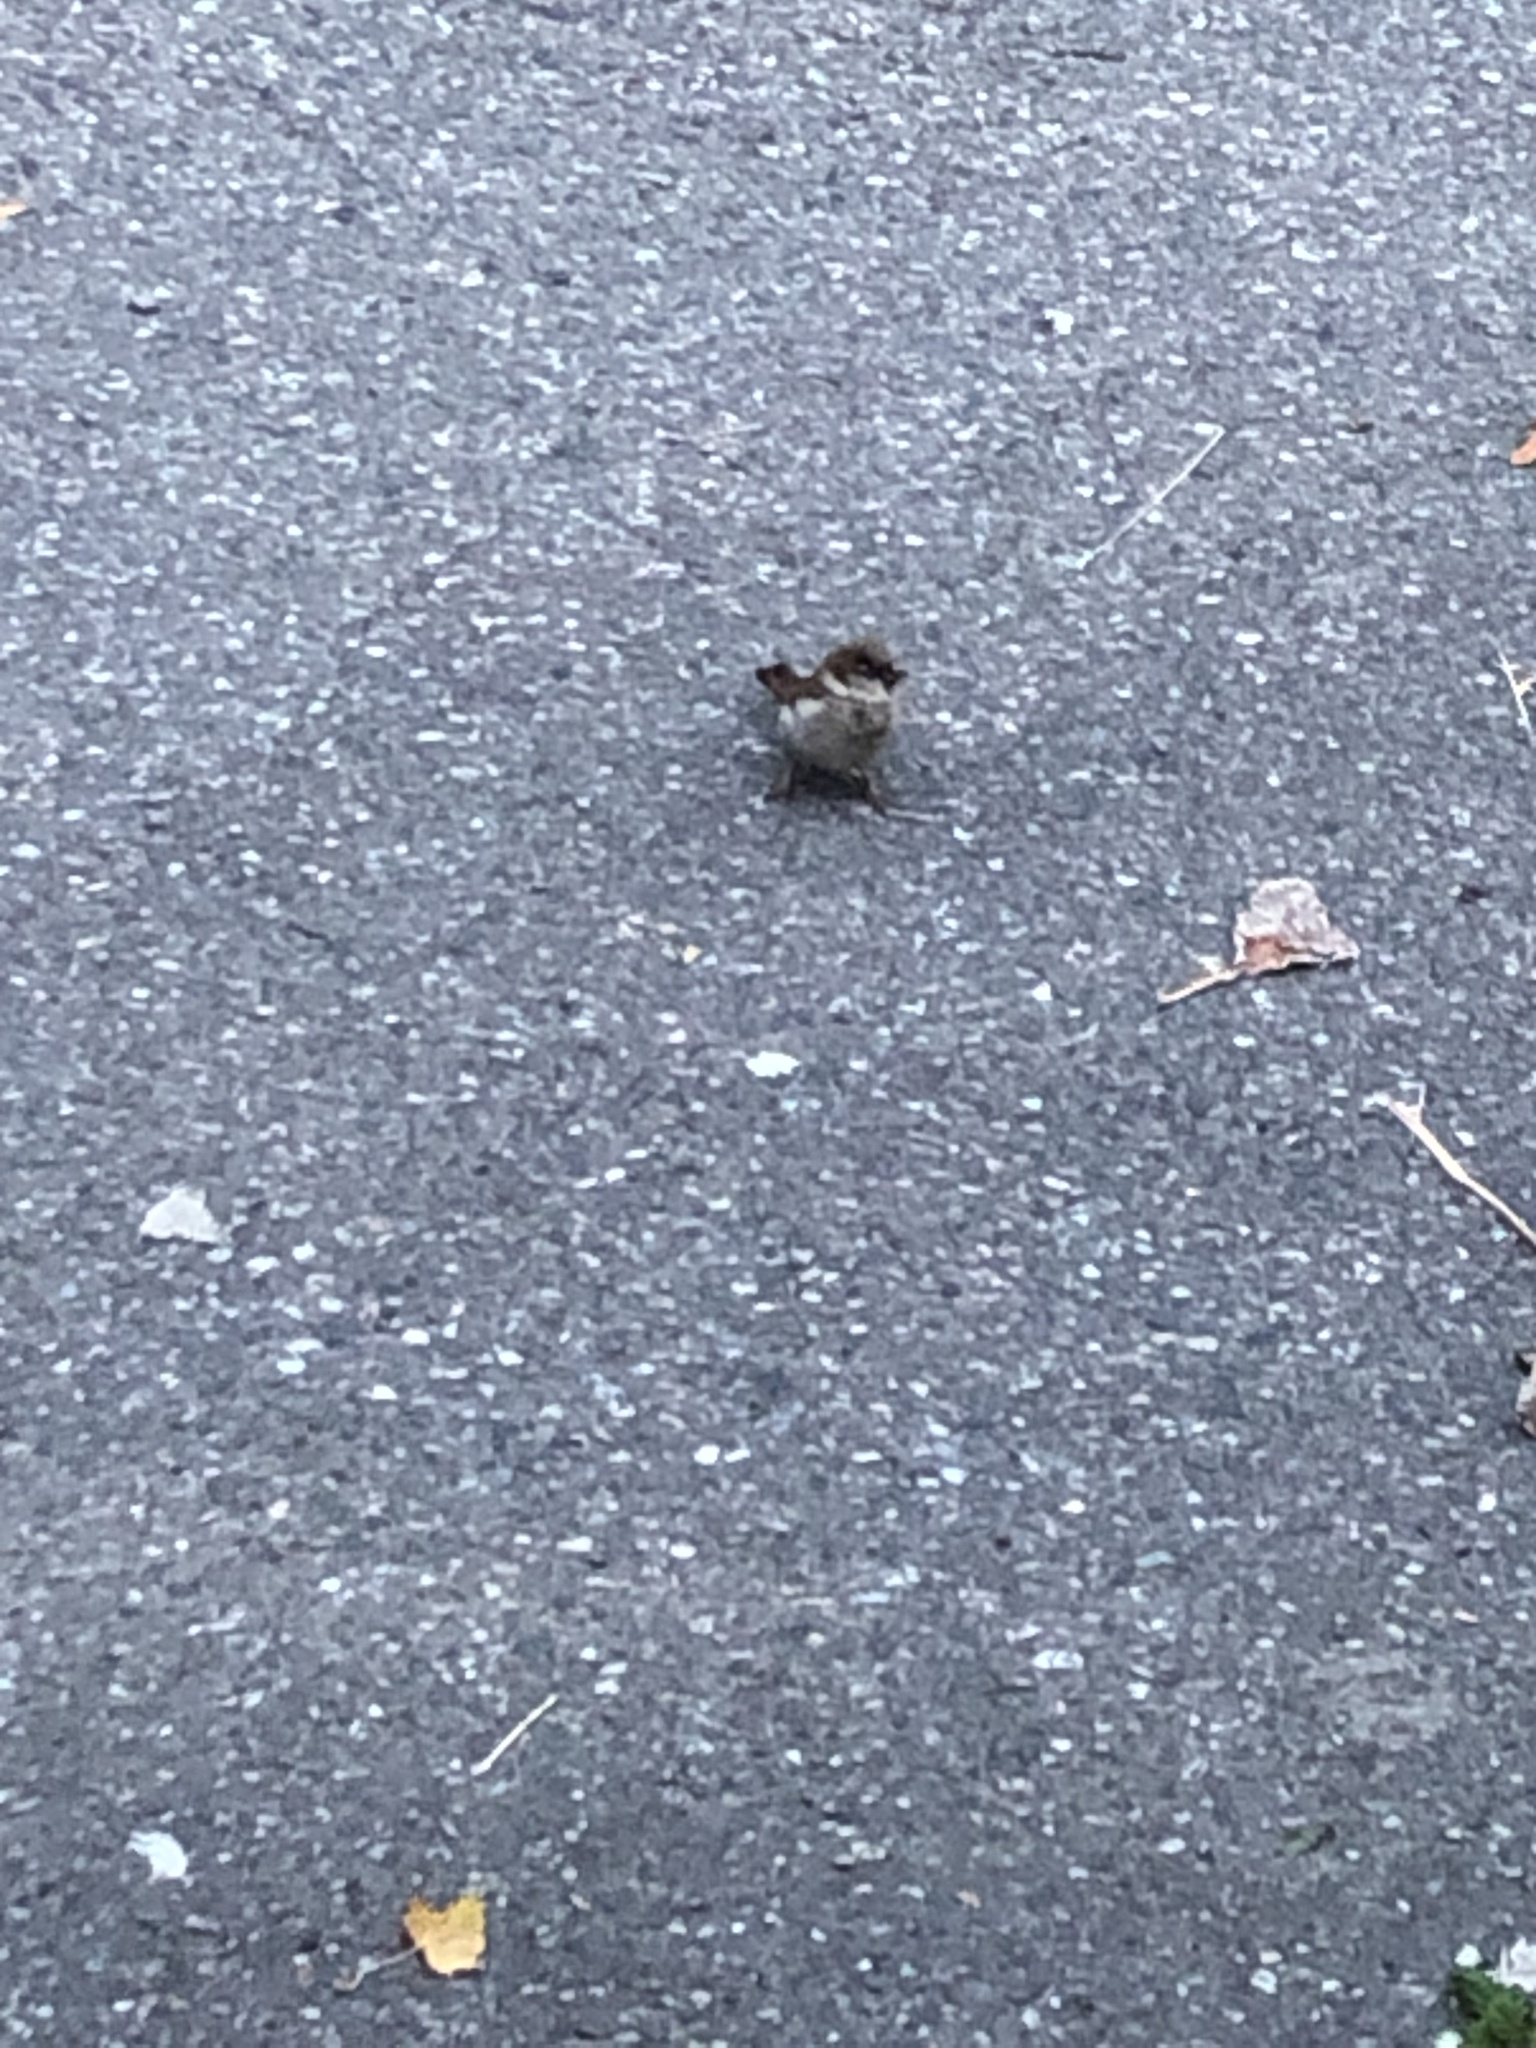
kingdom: Animalia
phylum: Chordata
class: Aves
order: Passeriformes
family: Passeridae
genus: Passer
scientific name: Passer domesticus
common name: House sparrow
